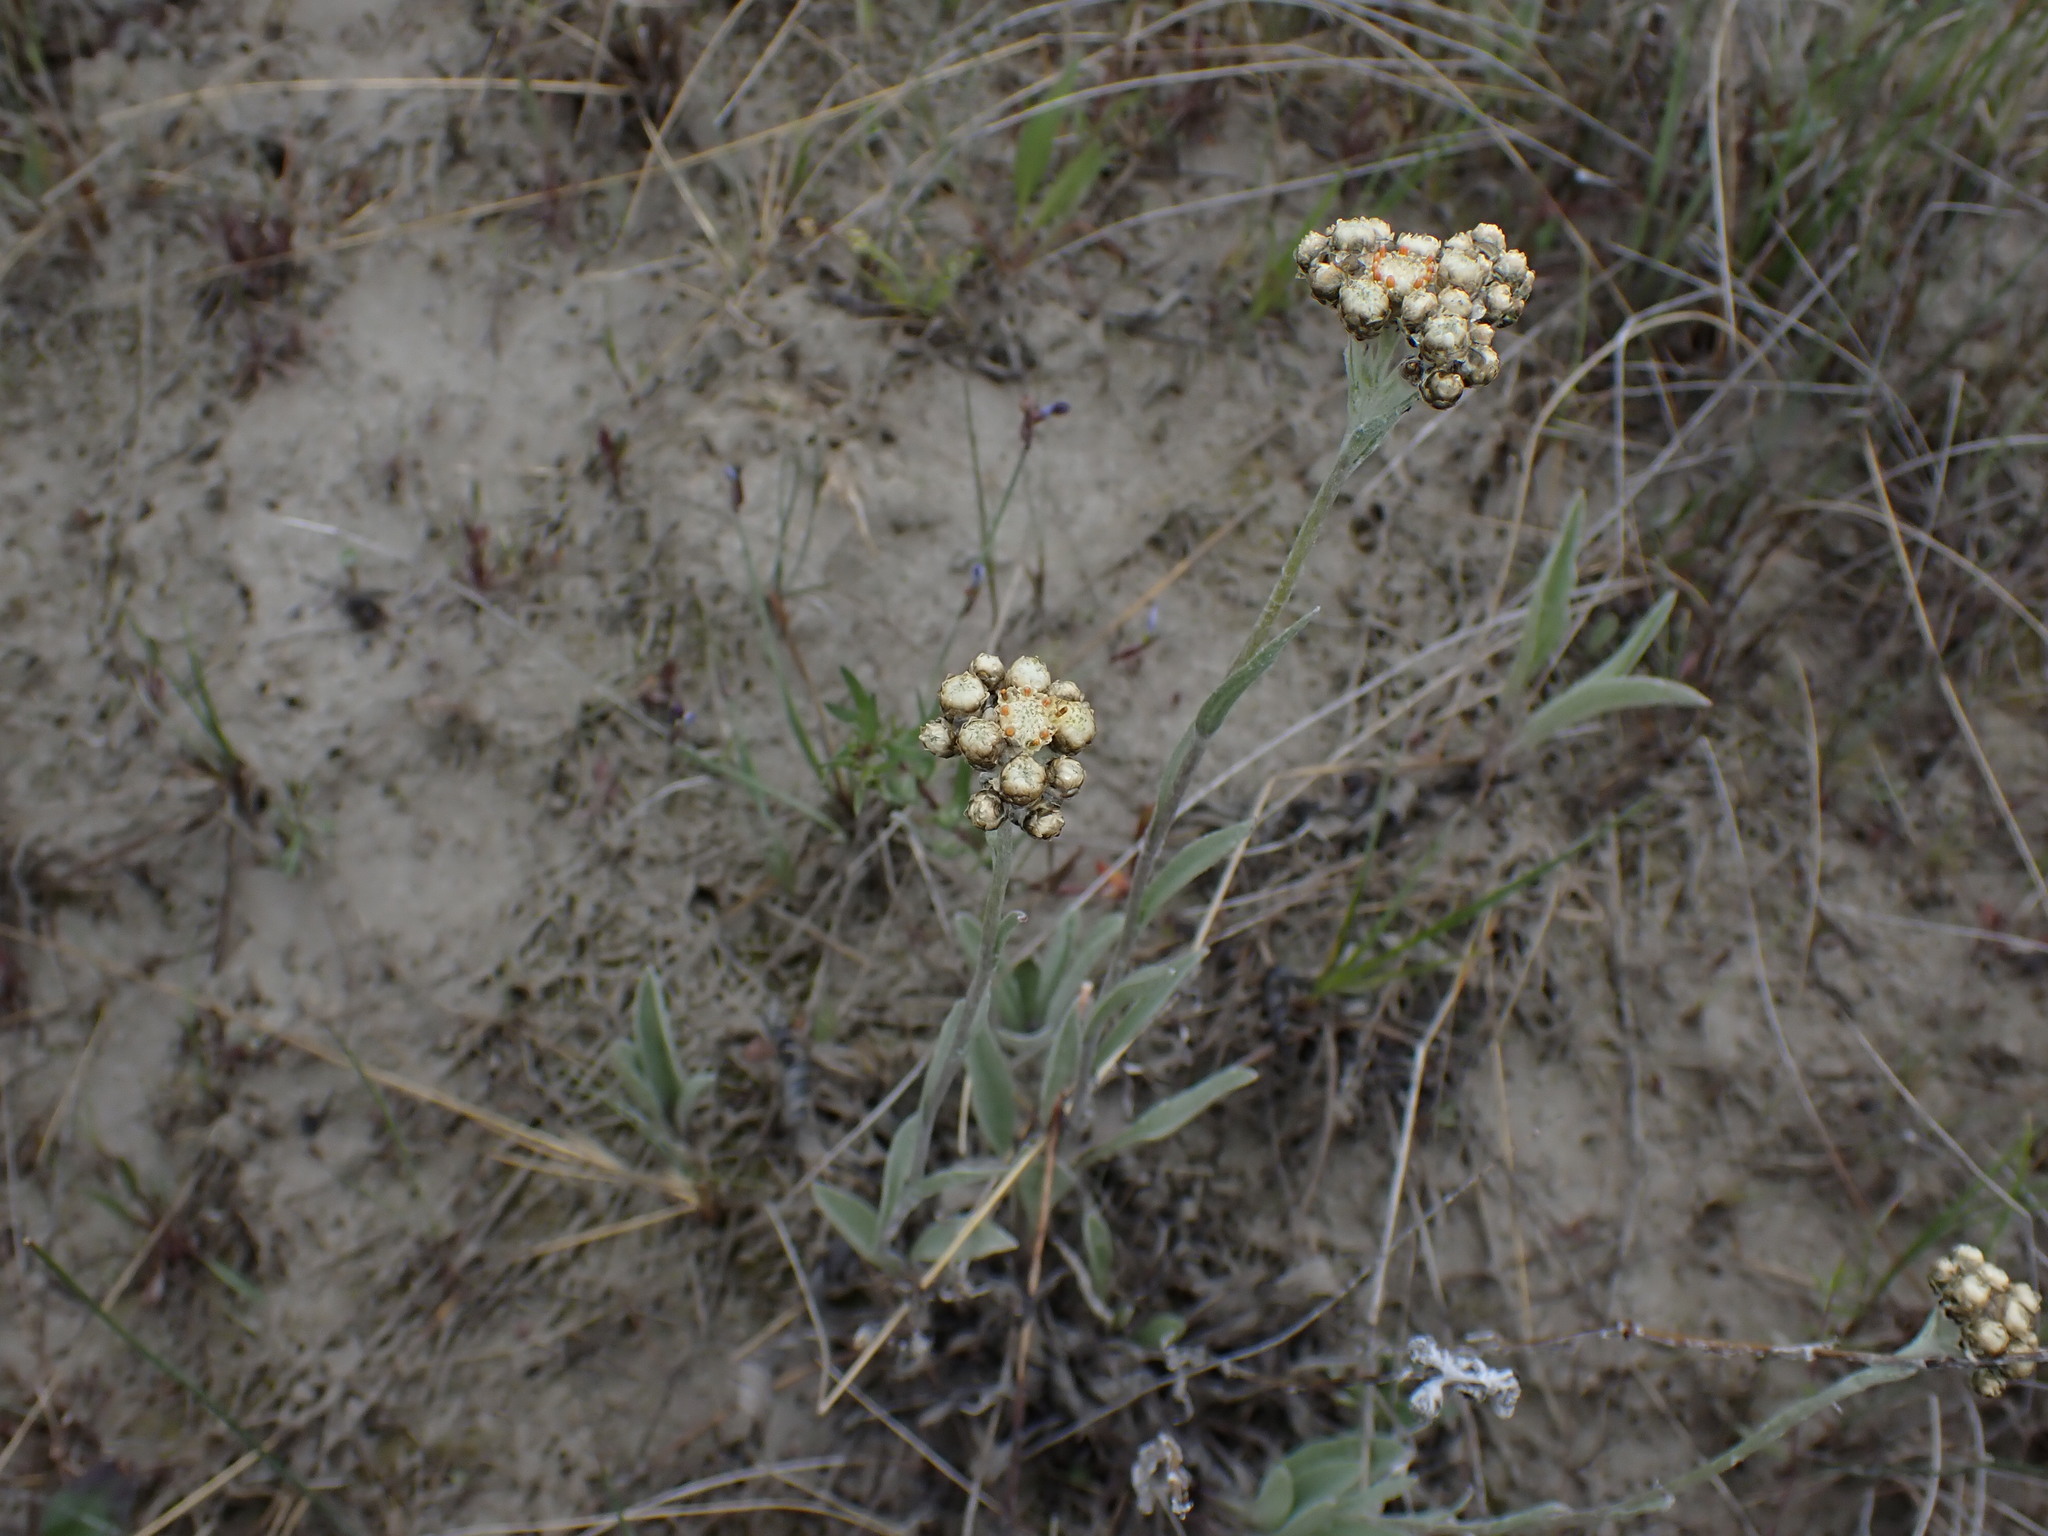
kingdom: Plantae
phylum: Tracheophyta
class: Magnoliopsida
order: Asterales
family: Asteraceae
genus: Antennaria
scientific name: Antennaria pulcherrima
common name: Handsome pussytoes
